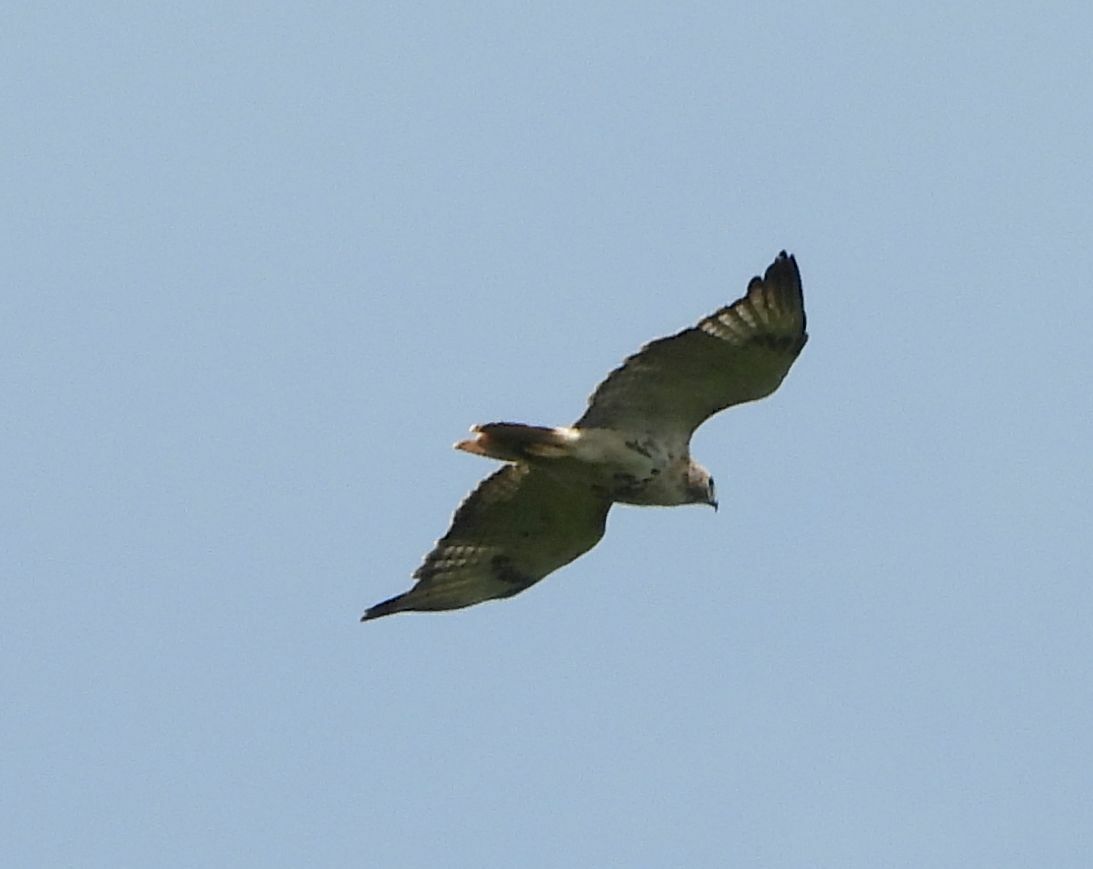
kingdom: Animalia
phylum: Chordata
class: Aves
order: Accipitriformes
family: Accipitridae
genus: Buteo
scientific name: Buteo jamaicensis
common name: Red-tailed hawk
